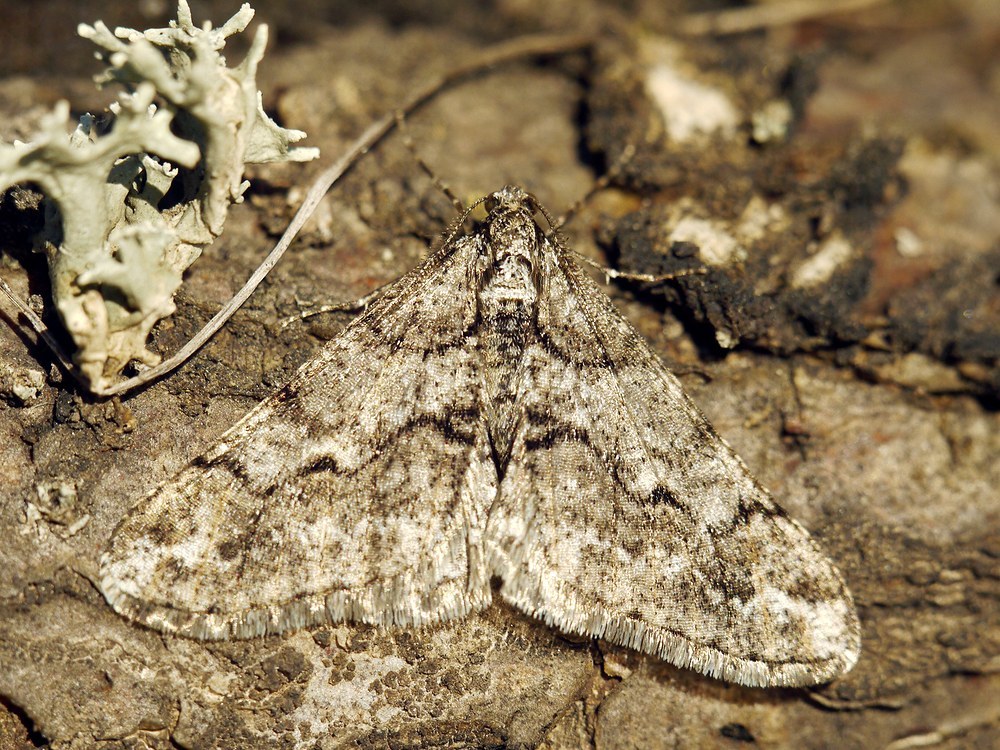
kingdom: Animalia
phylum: Arthropoda
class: Insecta
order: Lepidoptera
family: Geometridae
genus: Agriopis
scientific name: Agriopis leucophaearia
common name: Spring usher
